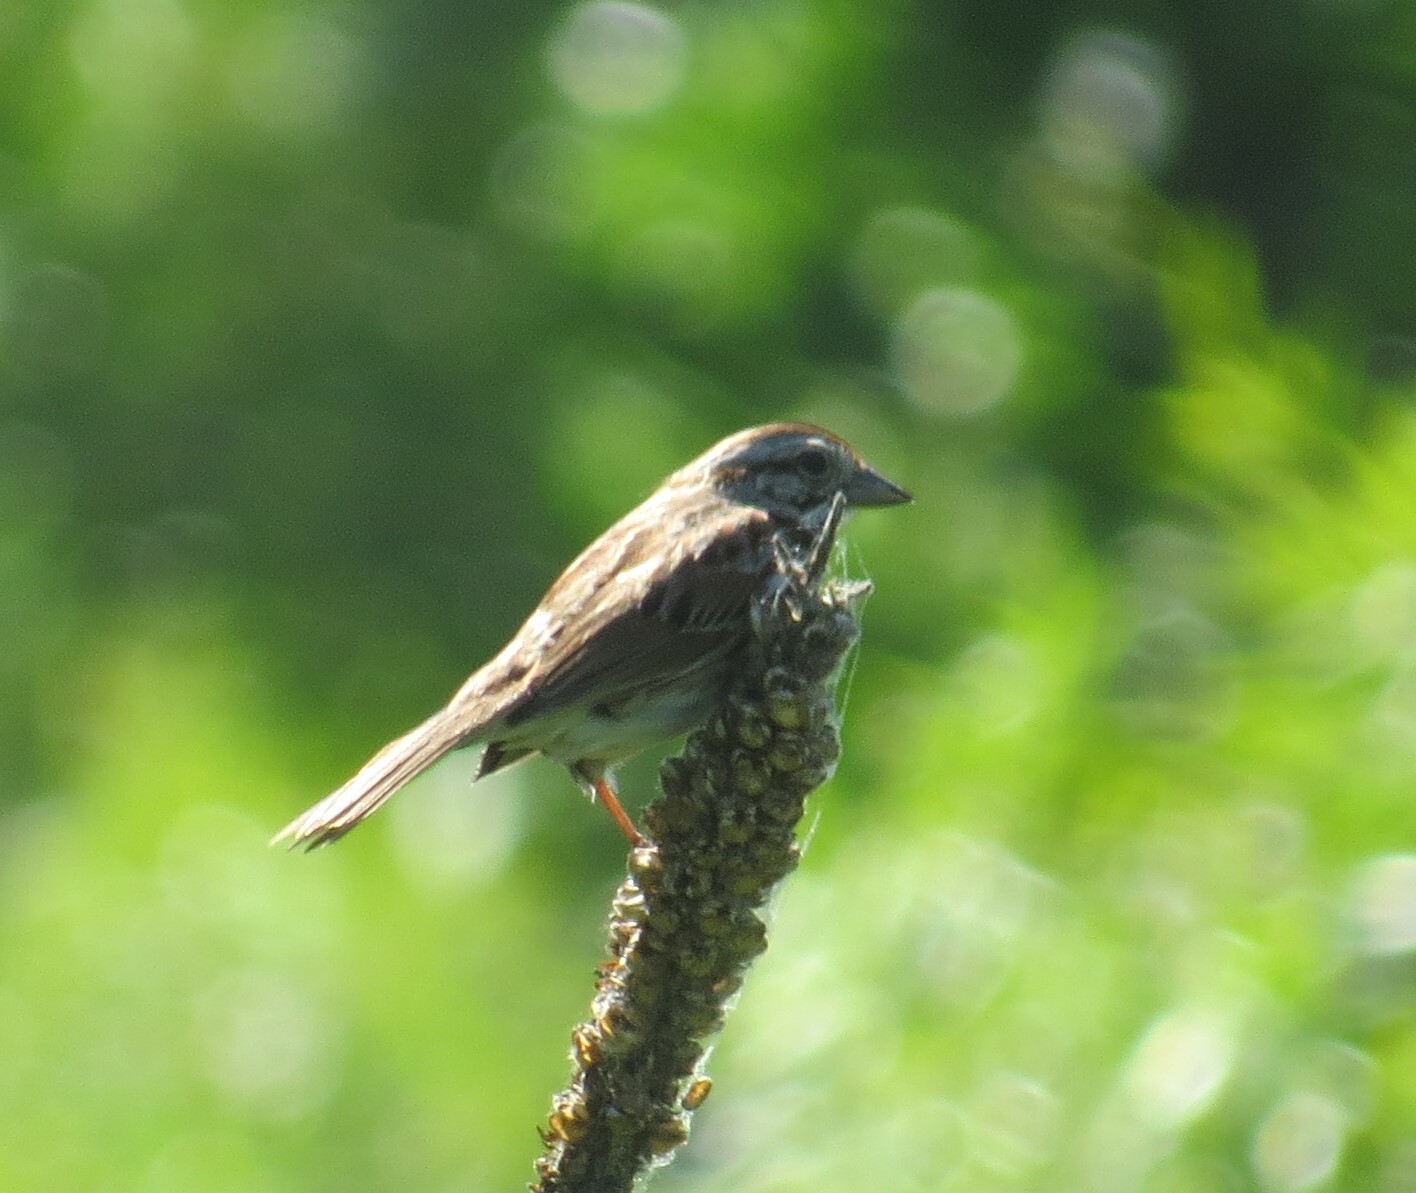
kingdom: Animalia
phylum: Chordata
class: Aves
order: Passeriformes
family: Passerellidae
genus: Melospiza
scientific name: Melospiza melodia
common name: Song sparrow
